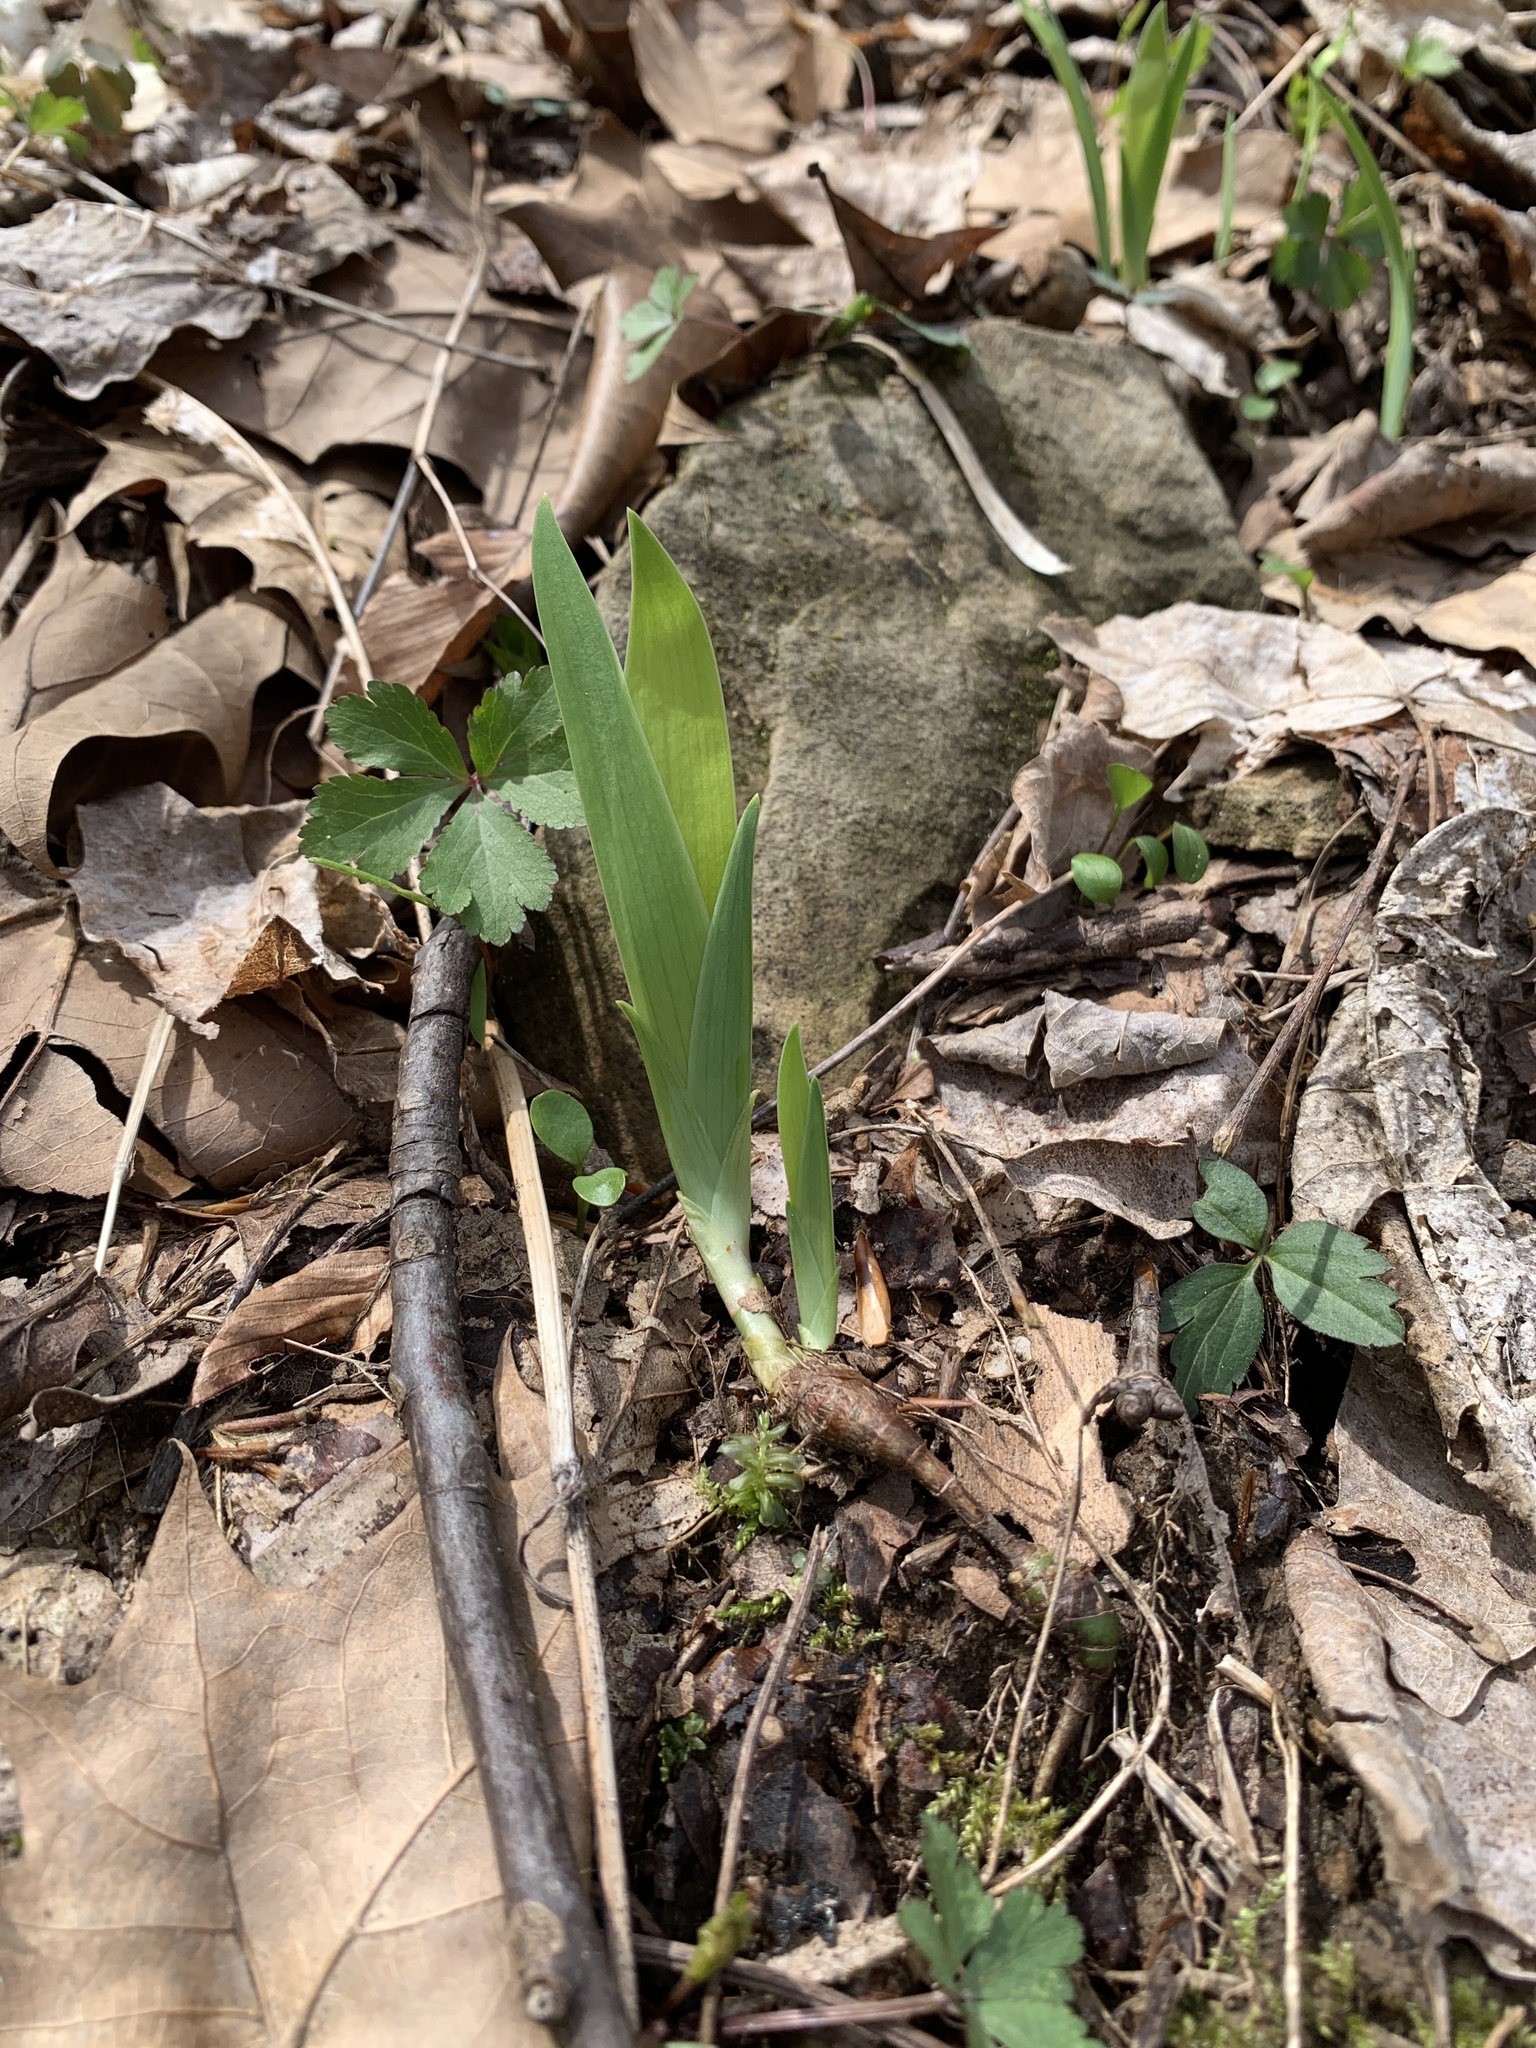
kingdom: Plantae
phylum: Tracheophyta
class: Liliopsida
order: Asparagales
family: Iridaceae
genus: Iris
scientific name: Iris cristata
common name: Crested iris
